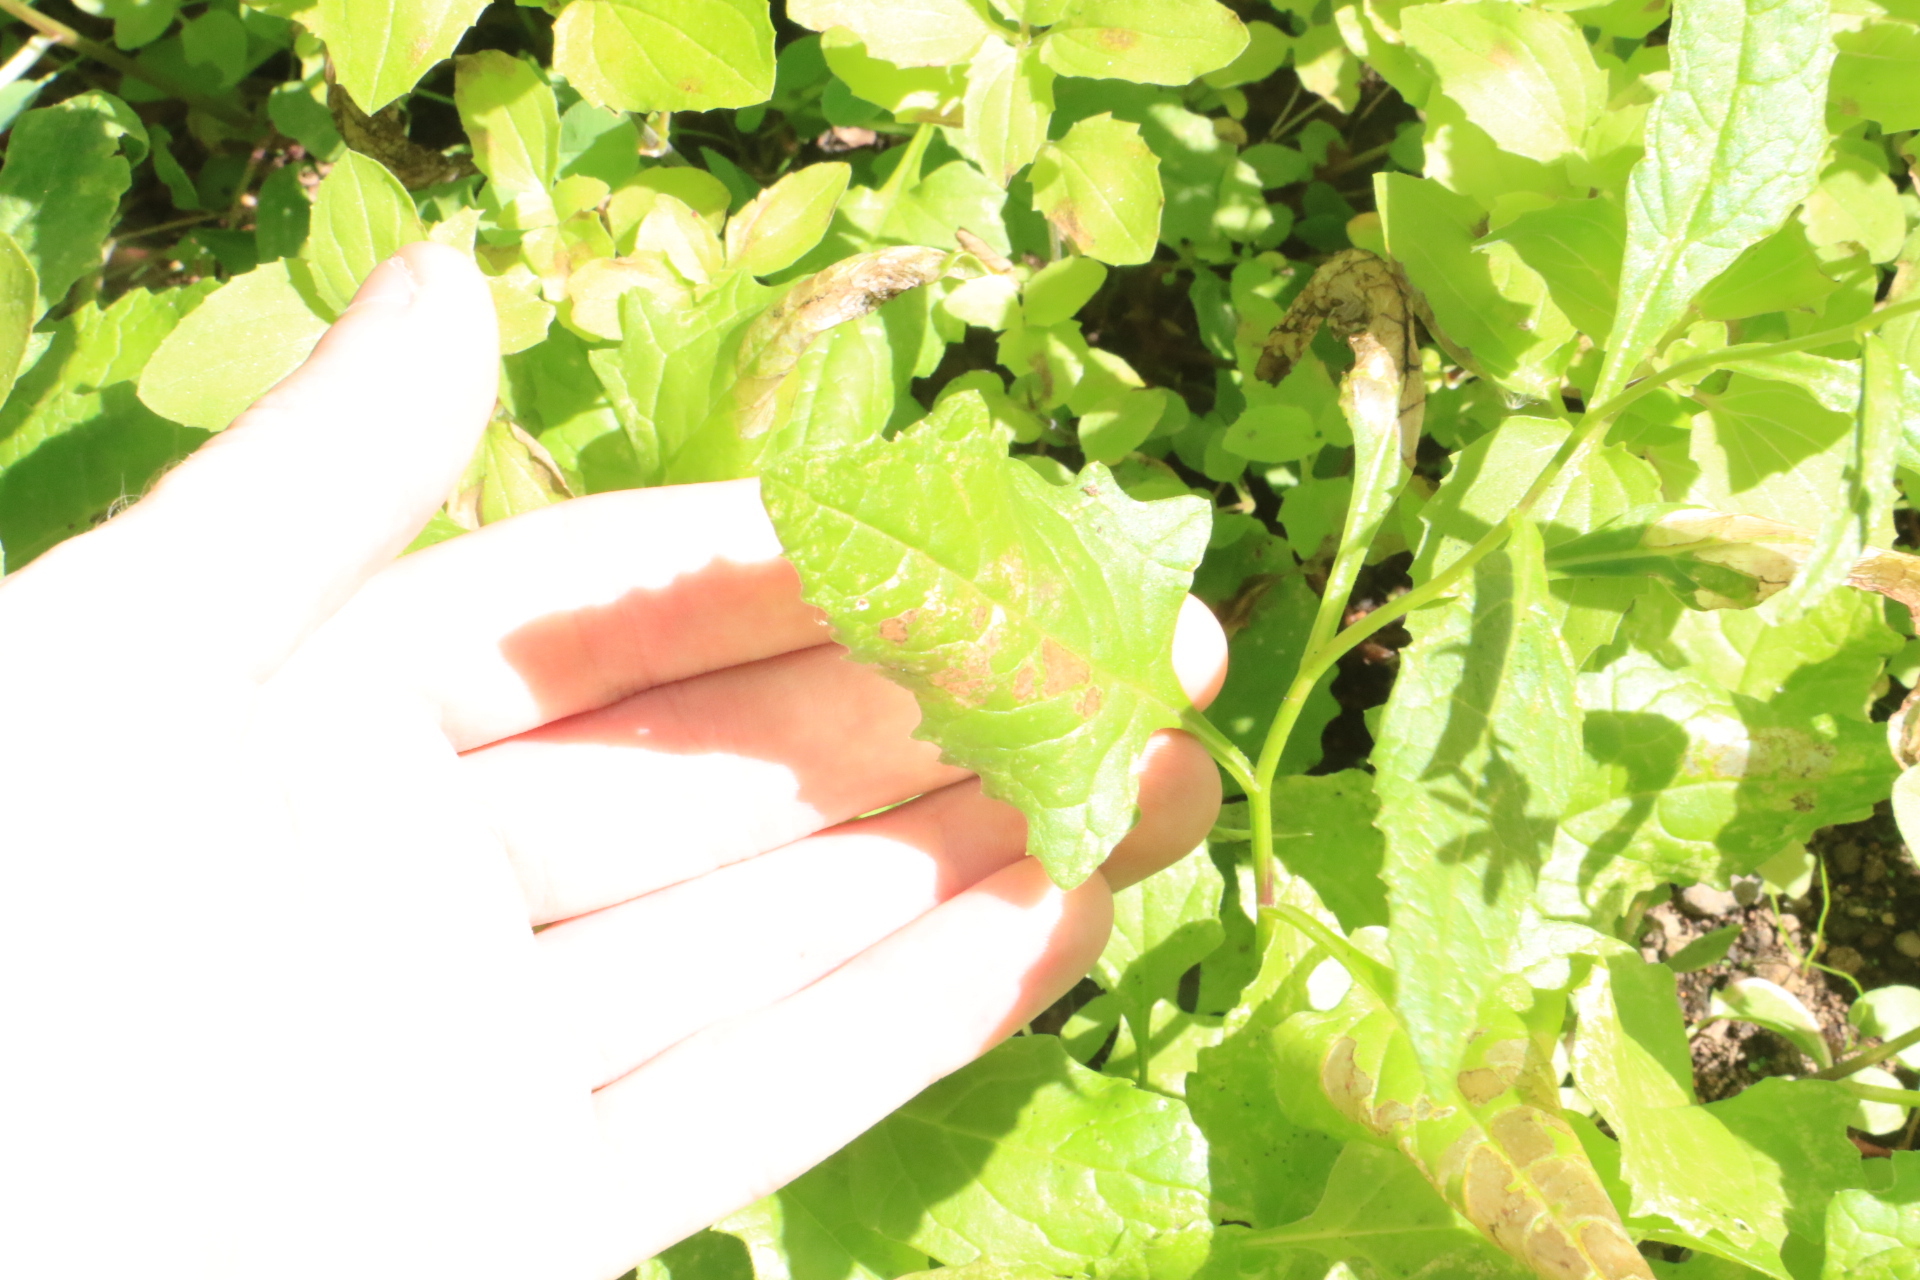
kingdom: Plantae
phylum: Tracheophyta
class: Magnoliopsida
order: Asterales
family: Asteraceae
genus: Senecio
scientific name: Senecio triangularis
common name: Arrowleaf butterweed
